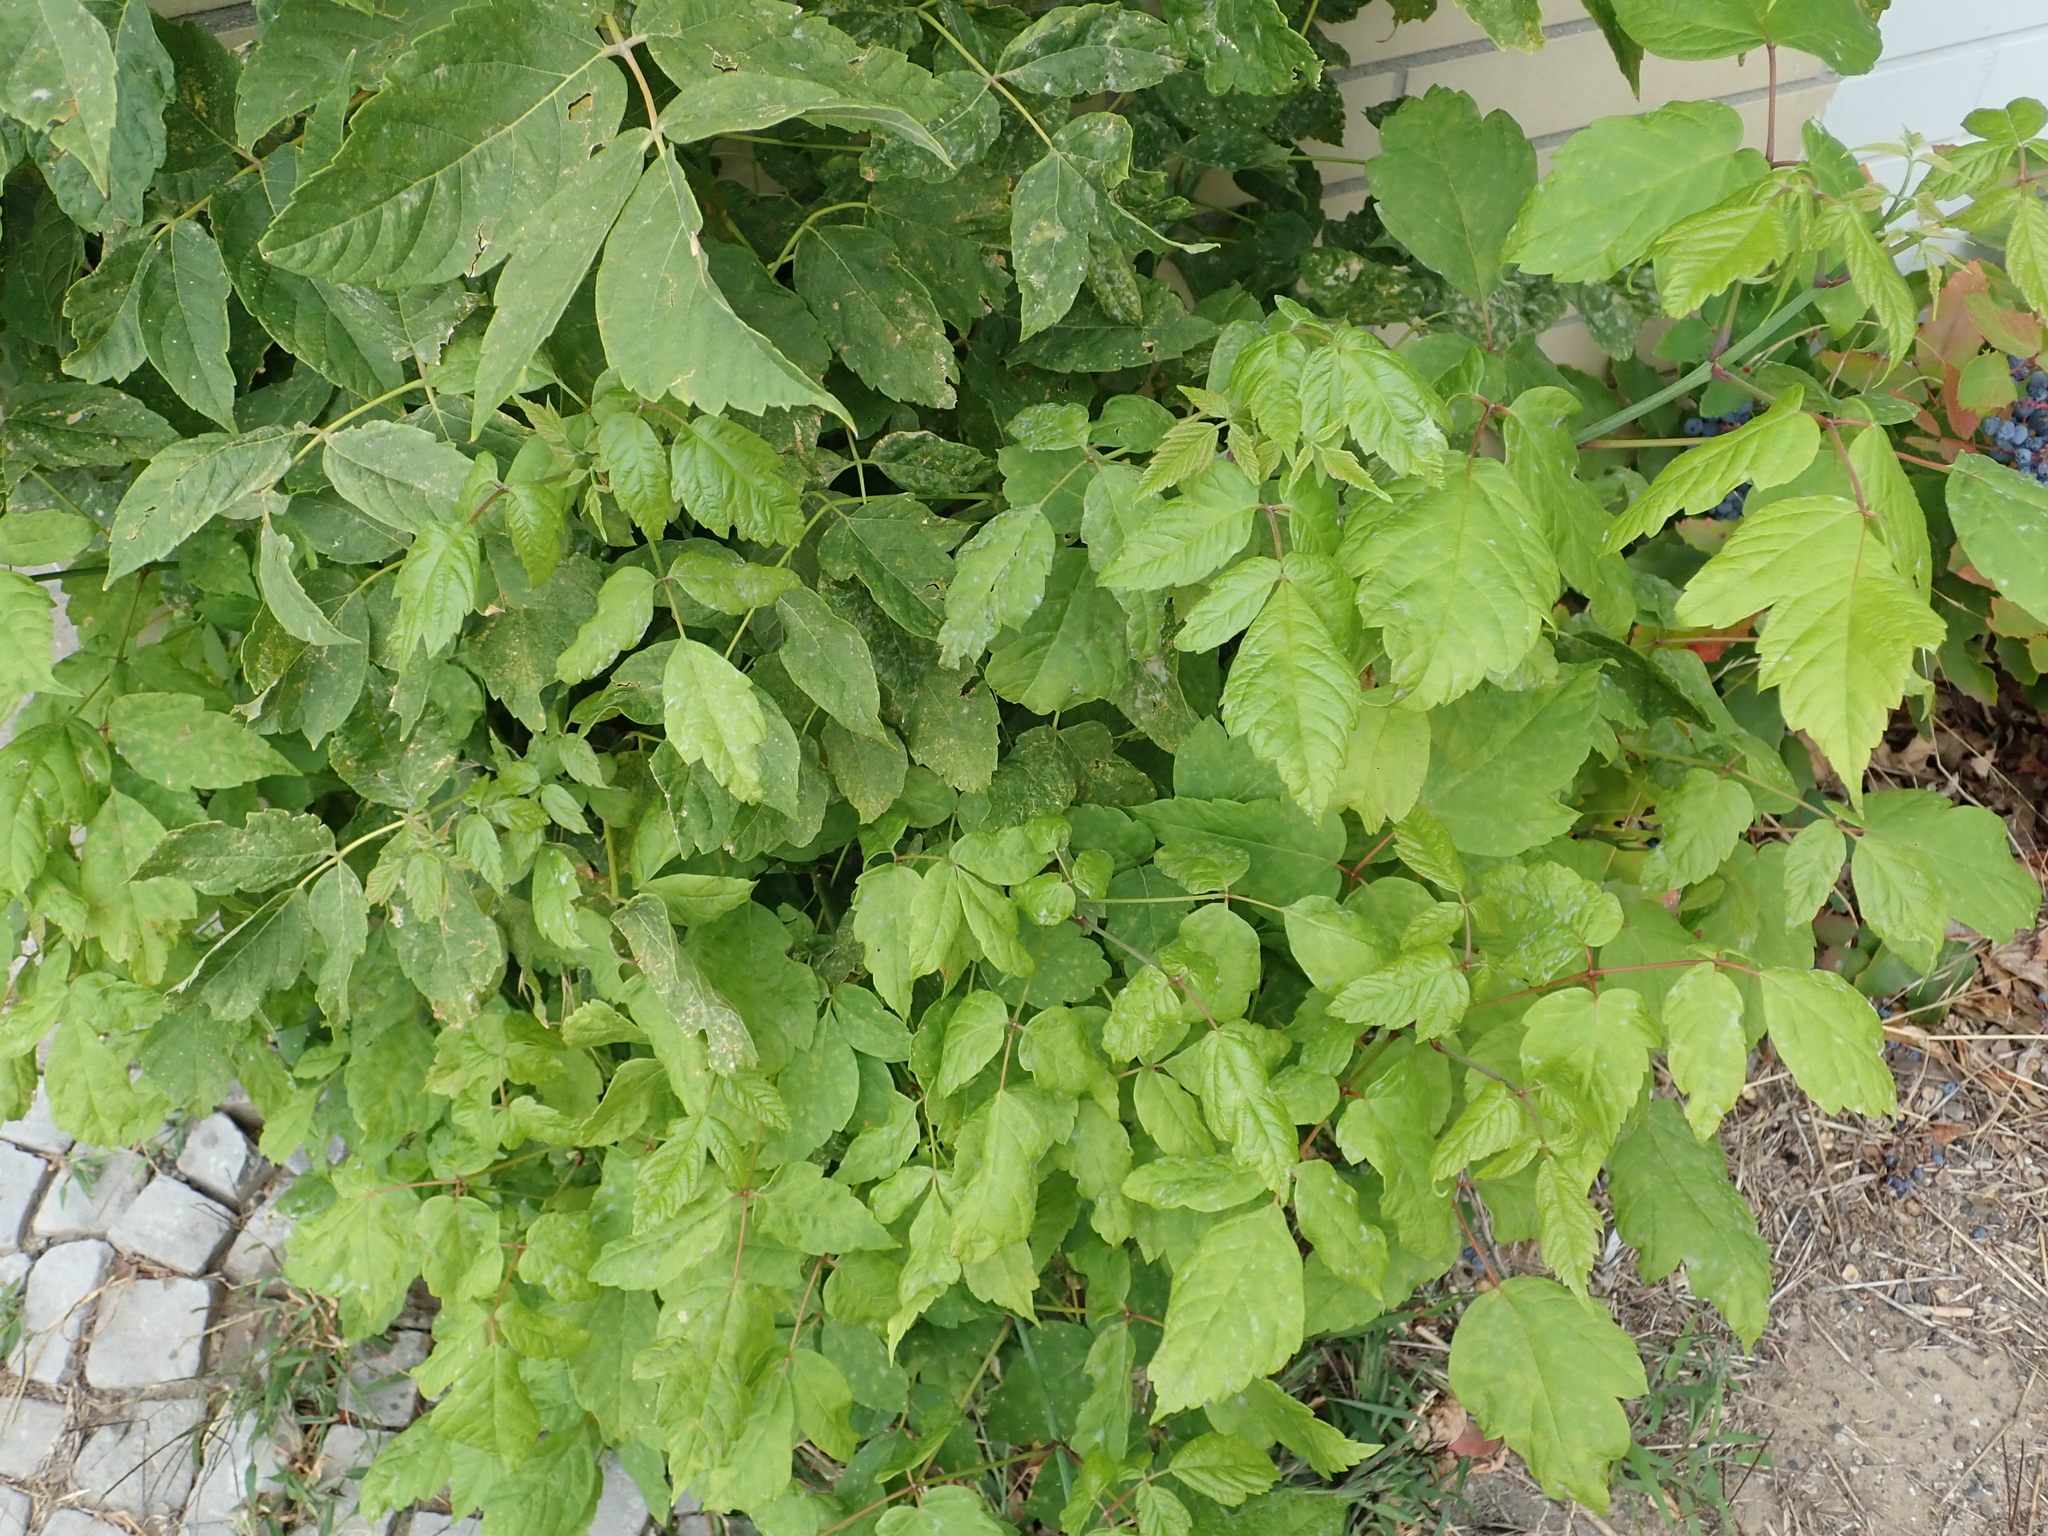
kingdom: Plantae
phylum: Tracheophyta
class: Magnoliopsida
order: Sapindales
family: Sapindaceae
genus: Acer
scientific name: Acer negundo
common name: Ashleaf maple
